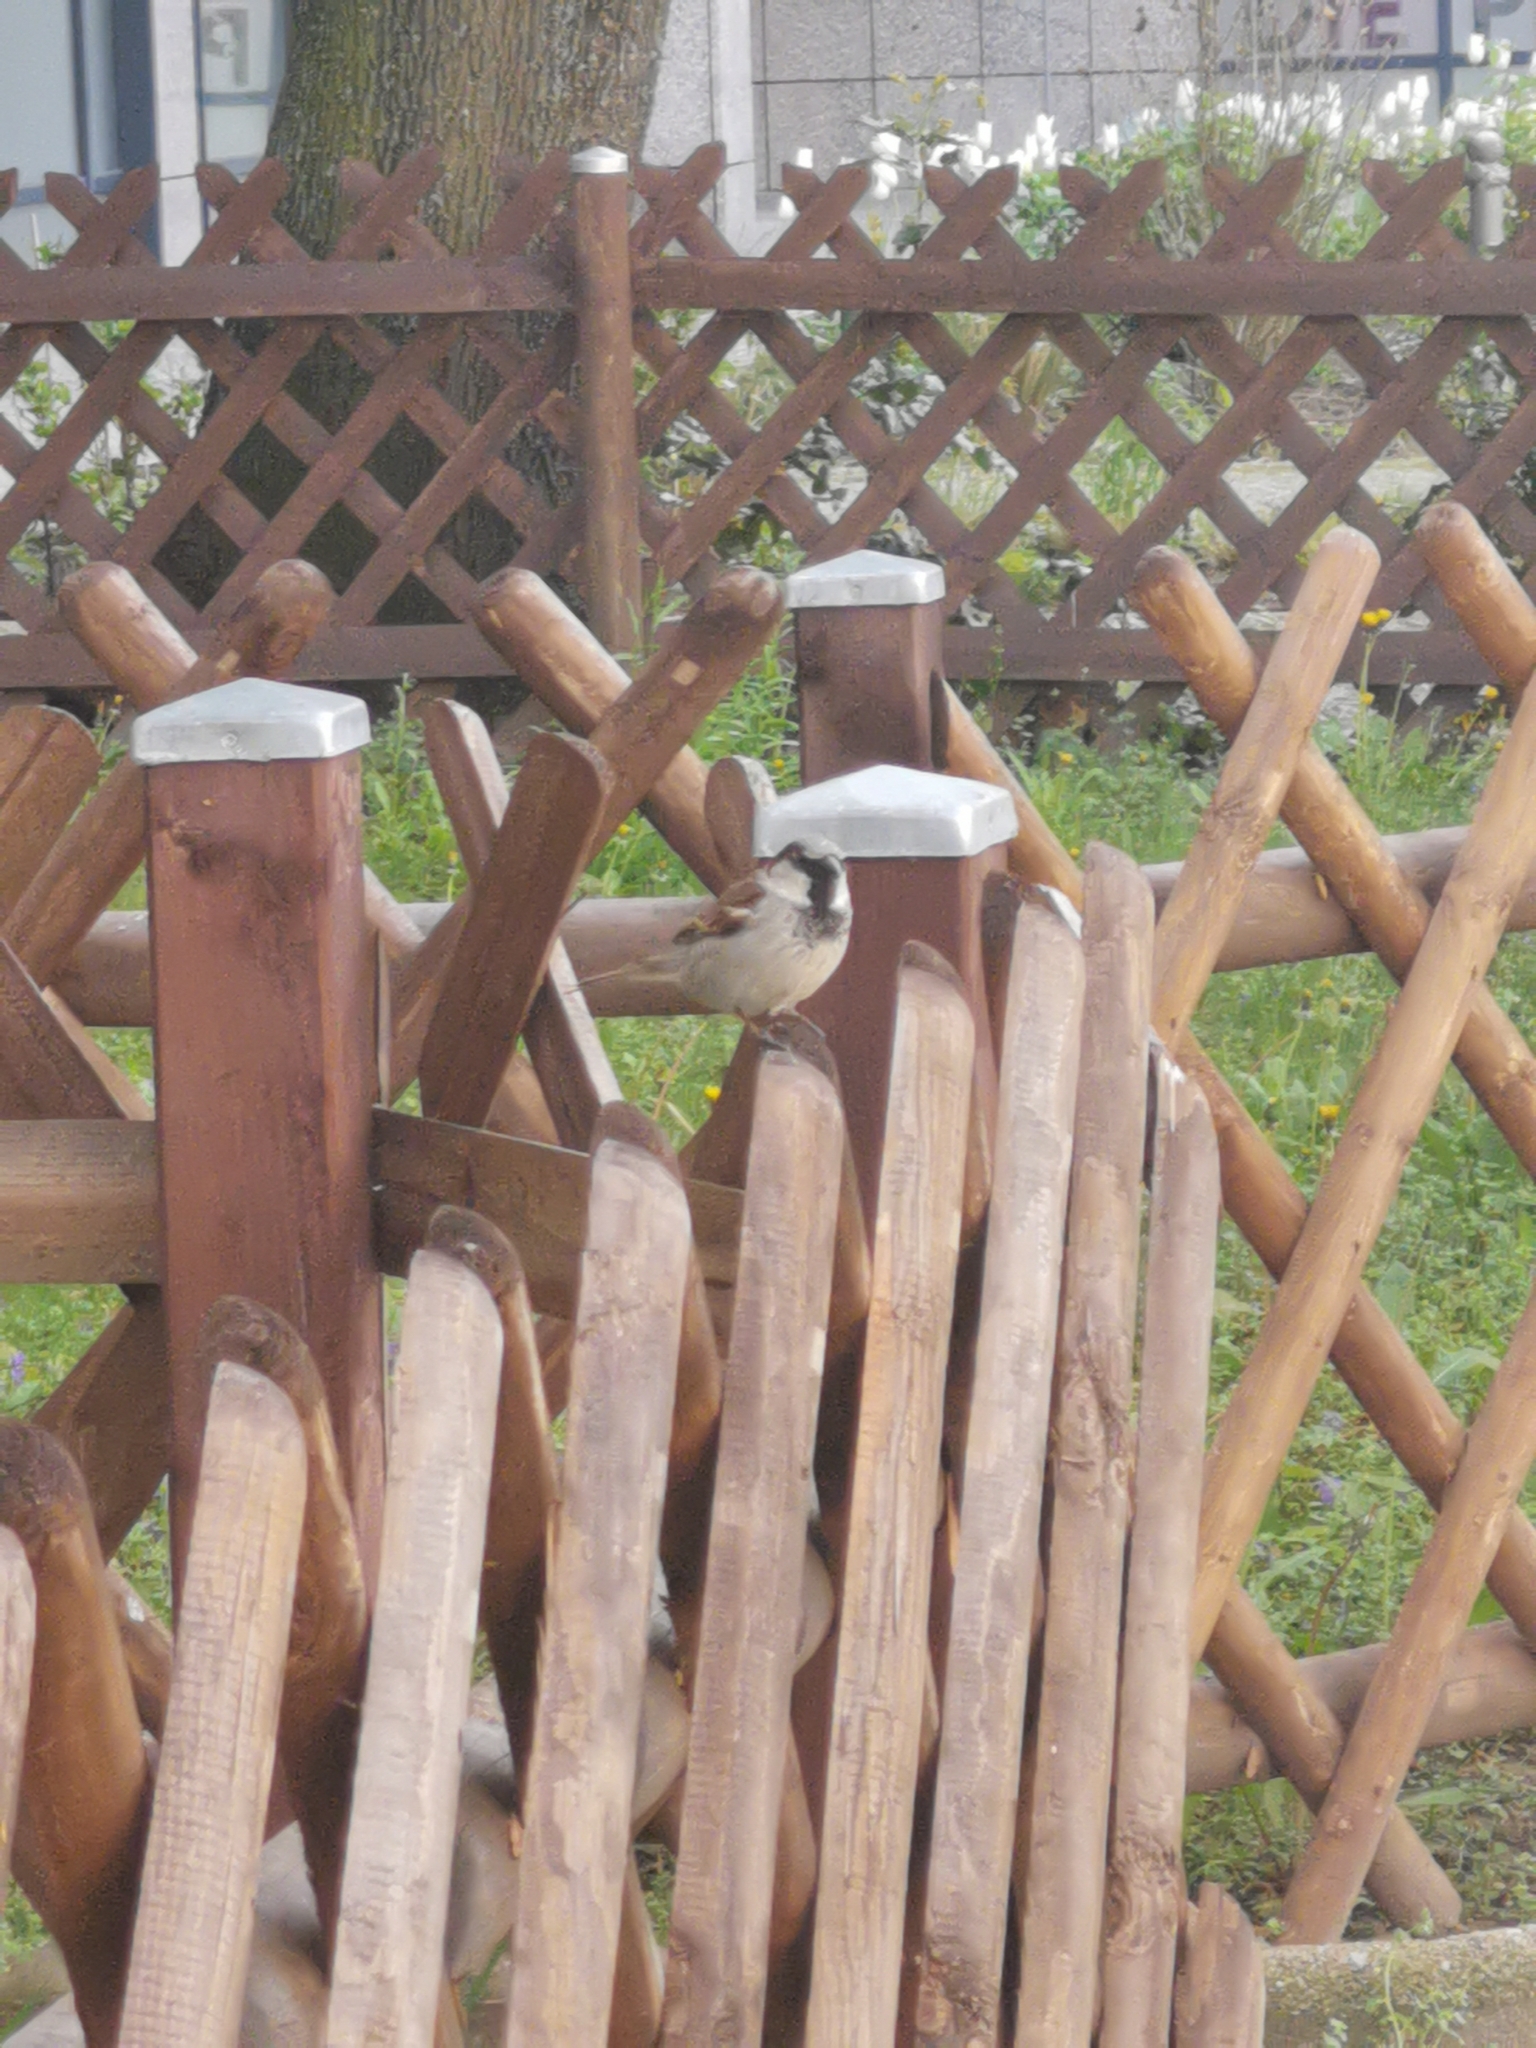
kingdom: Animalia
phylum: Chordata
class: Aves
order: Passeriformes
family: Passeridae
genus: Passer
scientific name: Passer domesticus
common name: House sparrow
